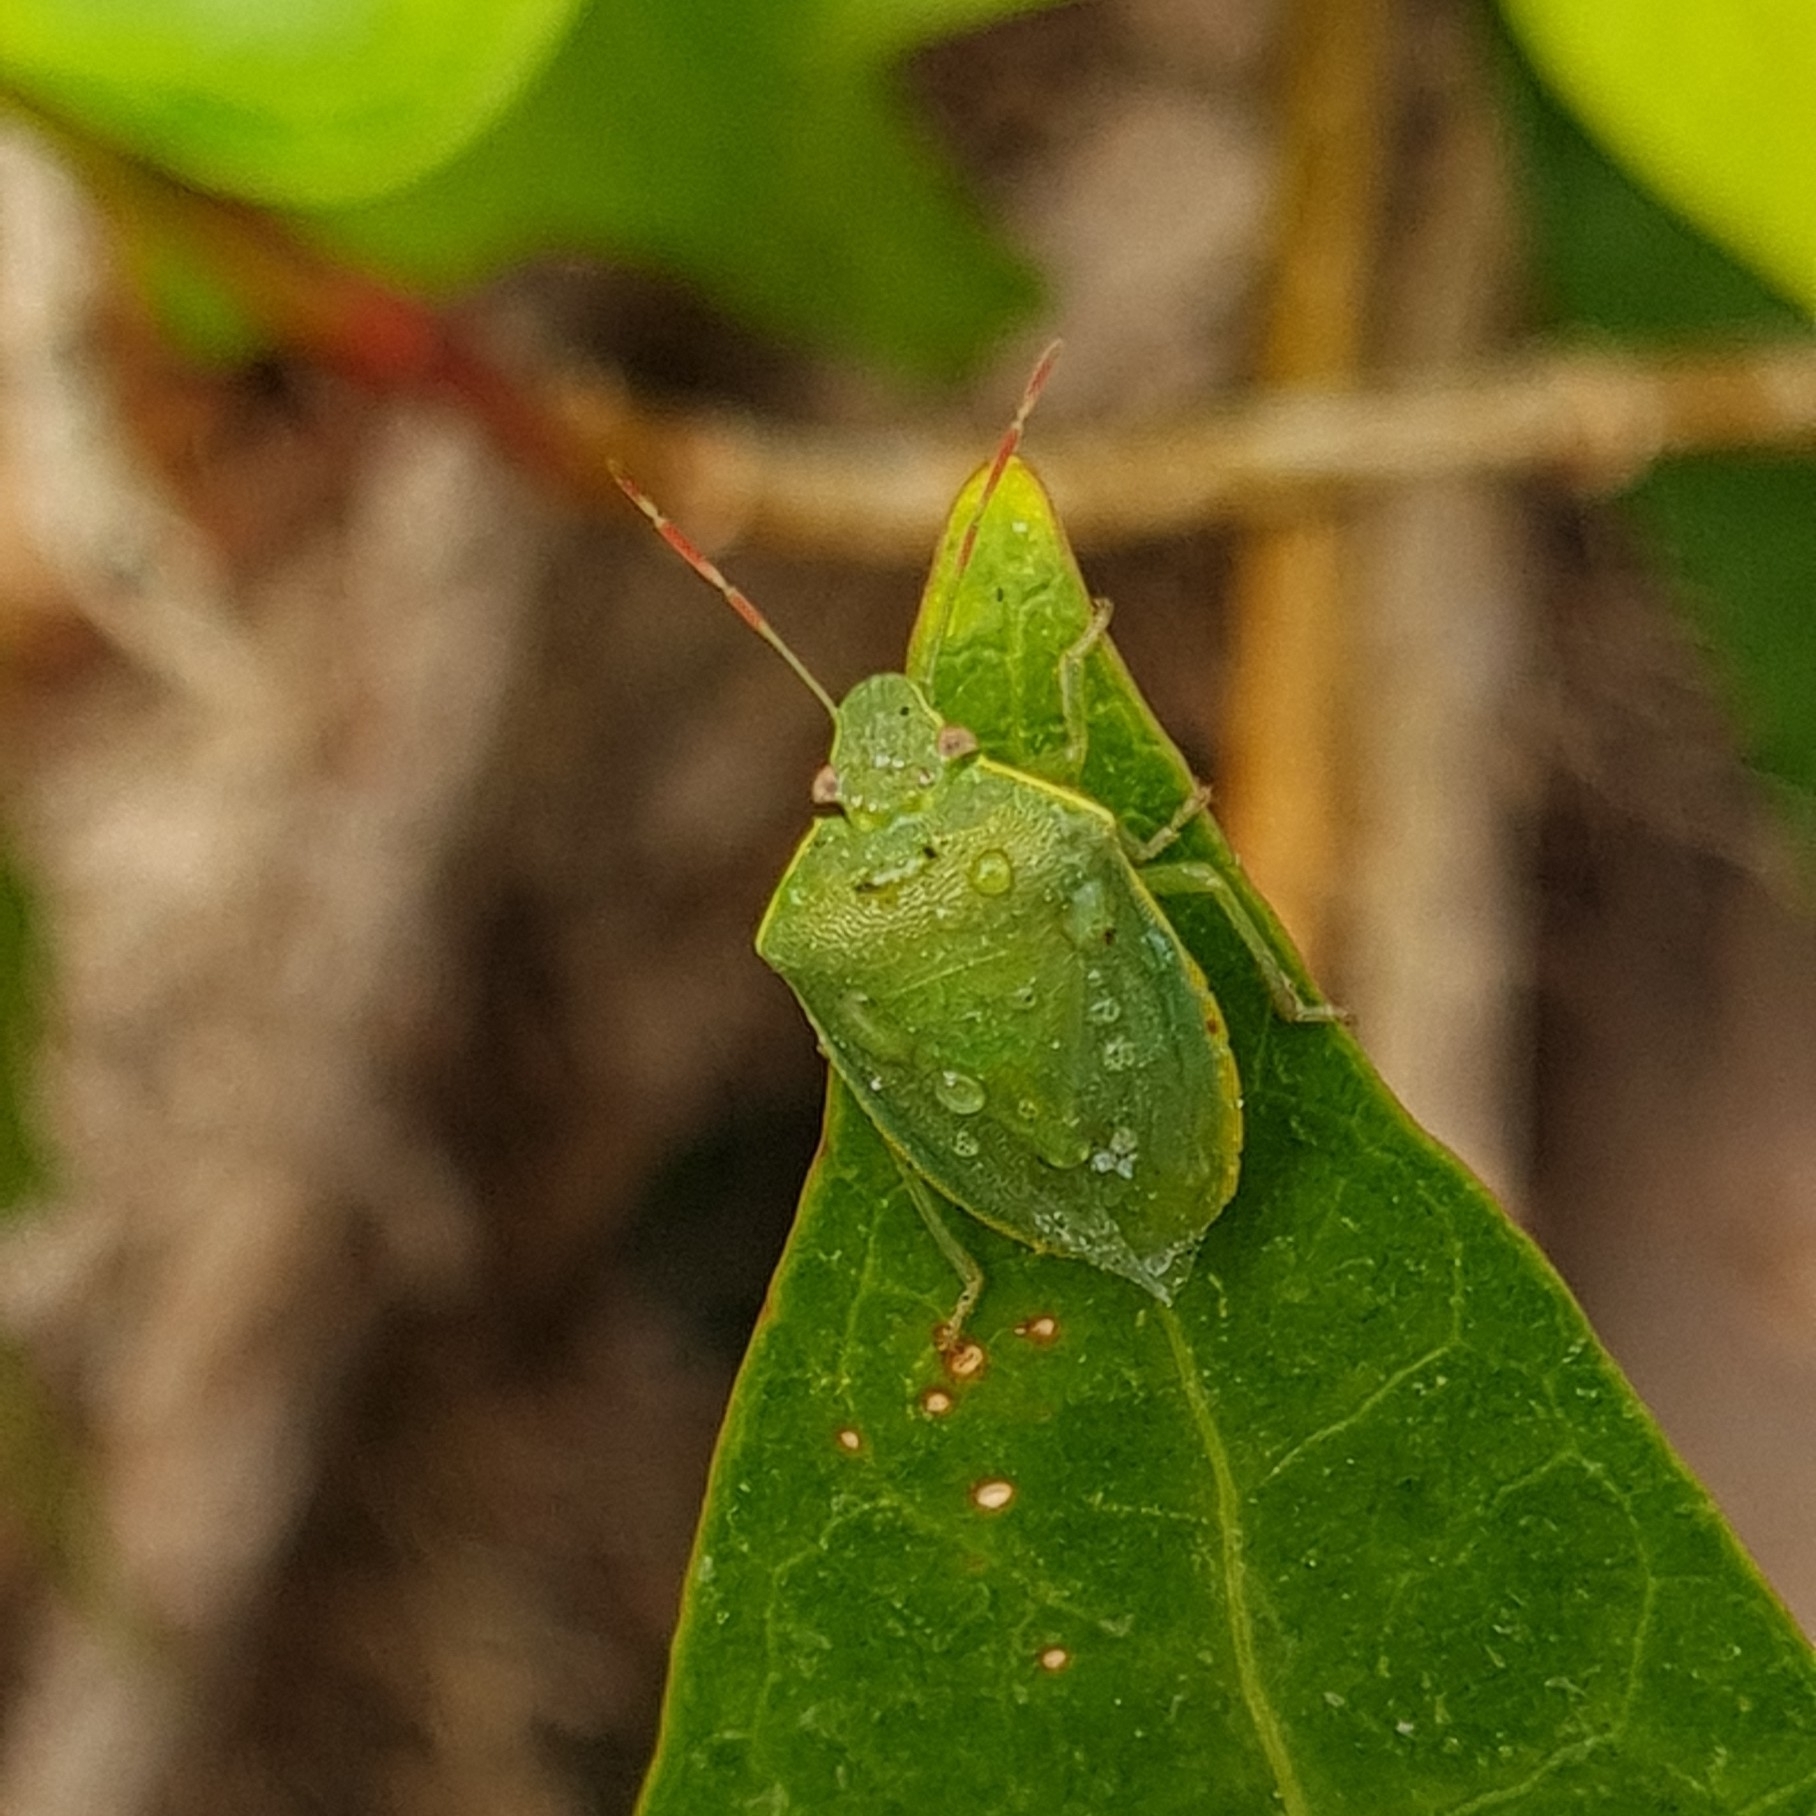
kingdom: Animalia
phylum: Arthropoda
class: Insecta
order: Hemiptera
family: Pentatomidae
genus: Acrosternum
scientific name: Acrosternum heegeri
